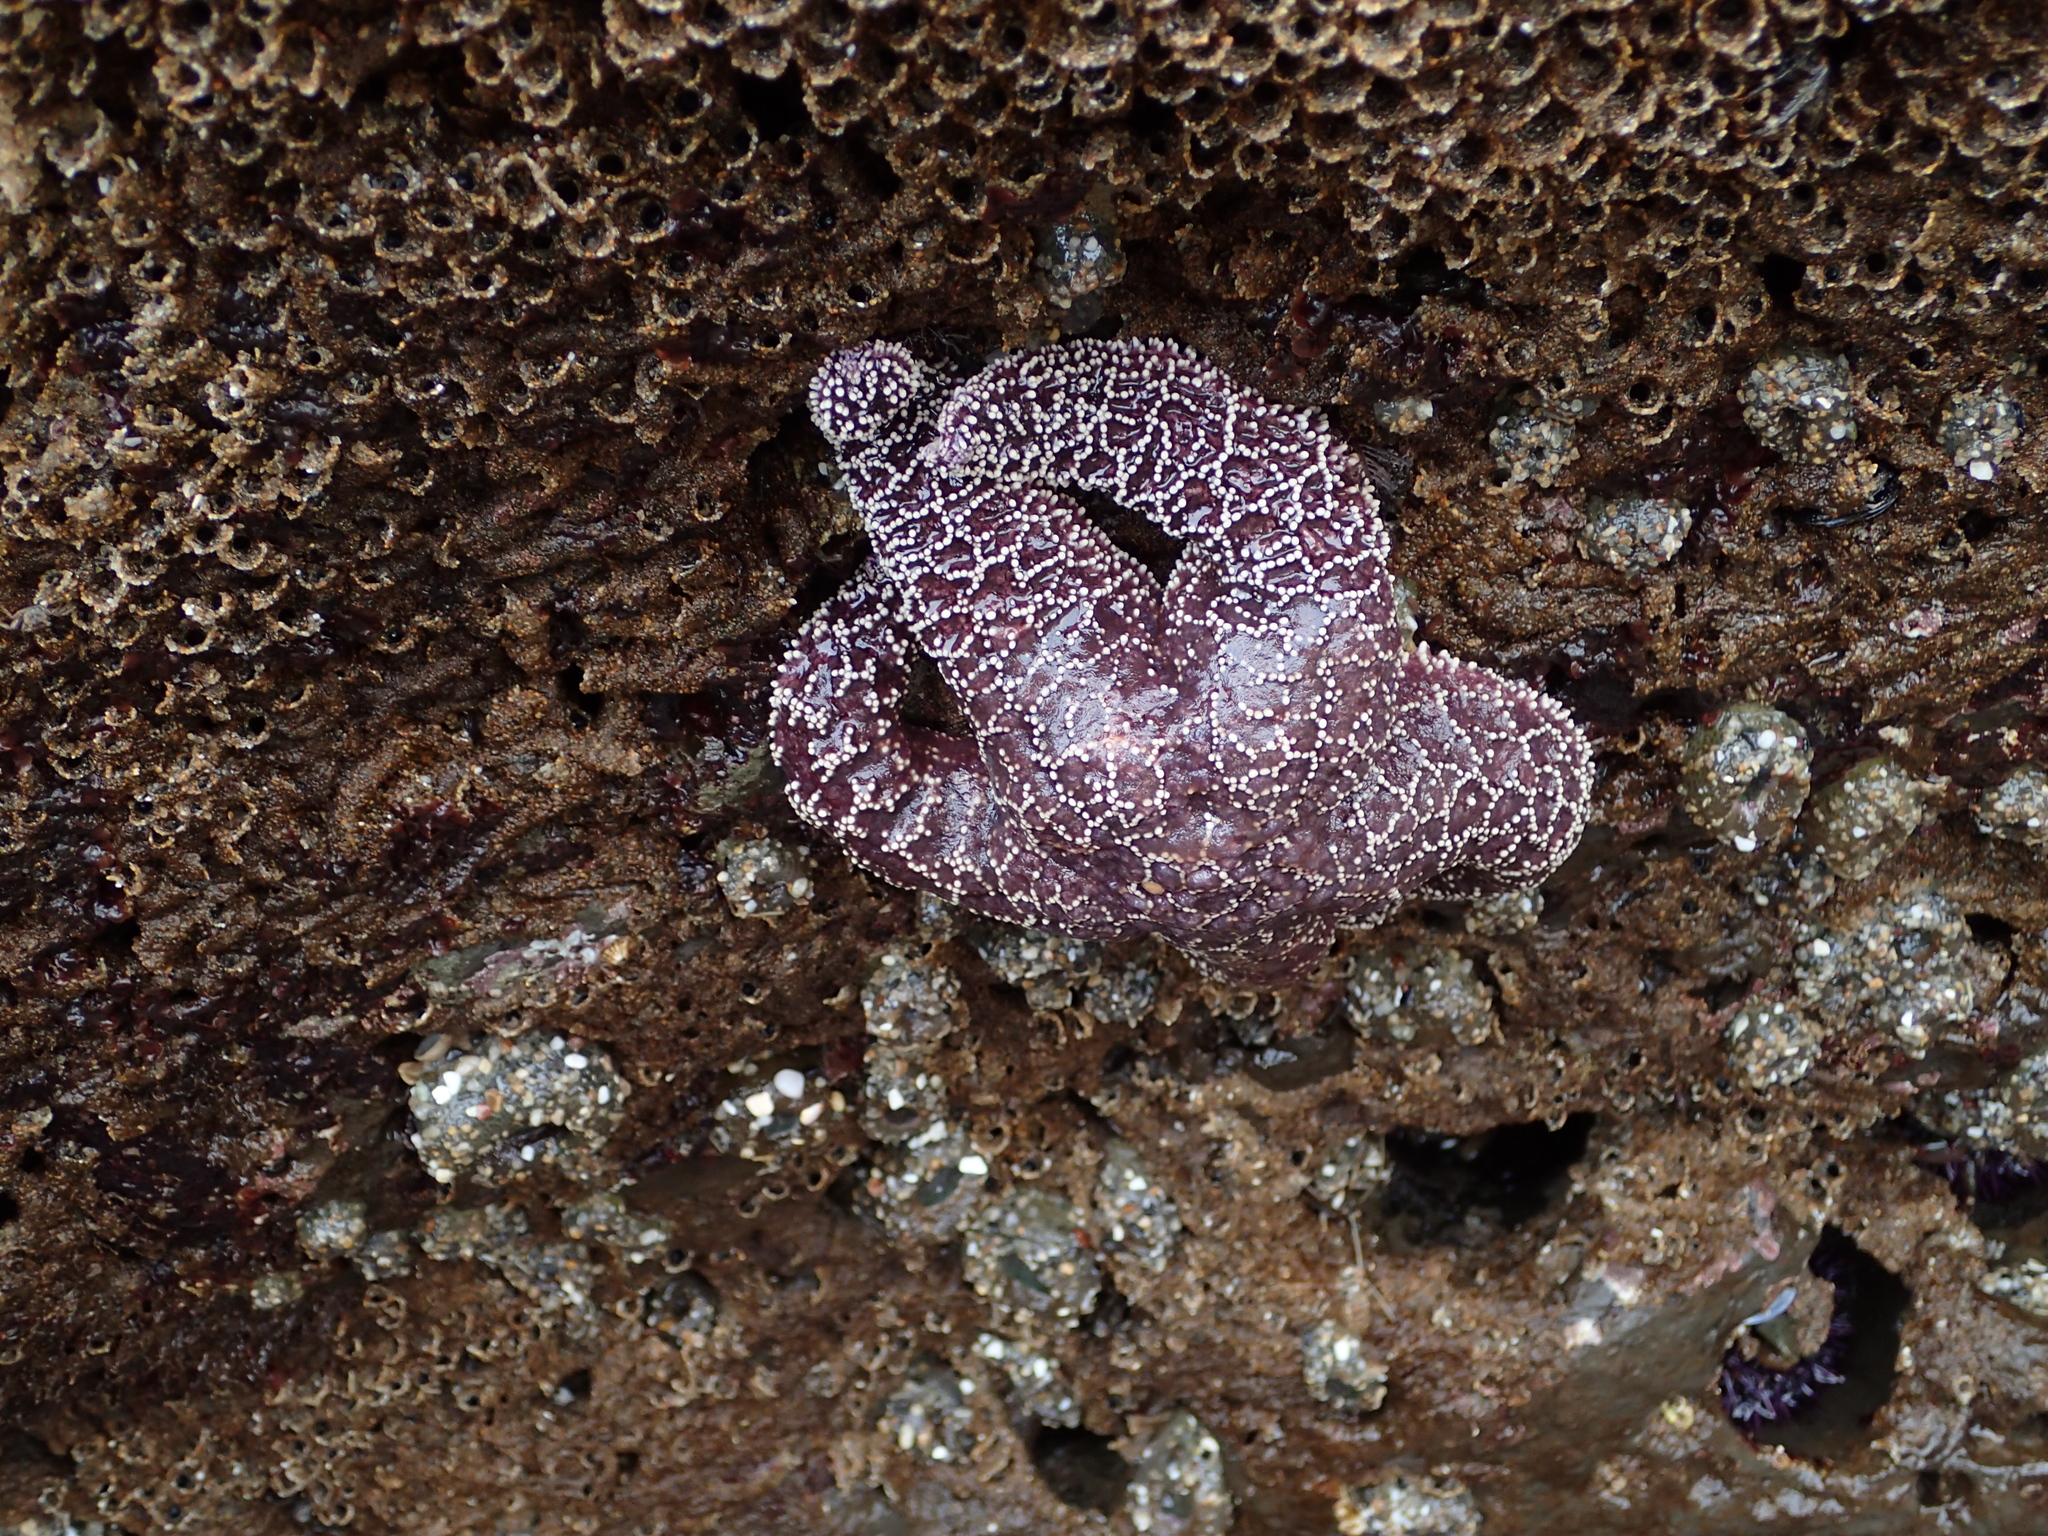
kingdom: Animalia
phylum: Echinodermata
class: Asteroidea
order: Forcipulatida
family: Asteriidae
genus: Pisaster
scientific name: Pisaster ochraceus
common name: Ochre stars
